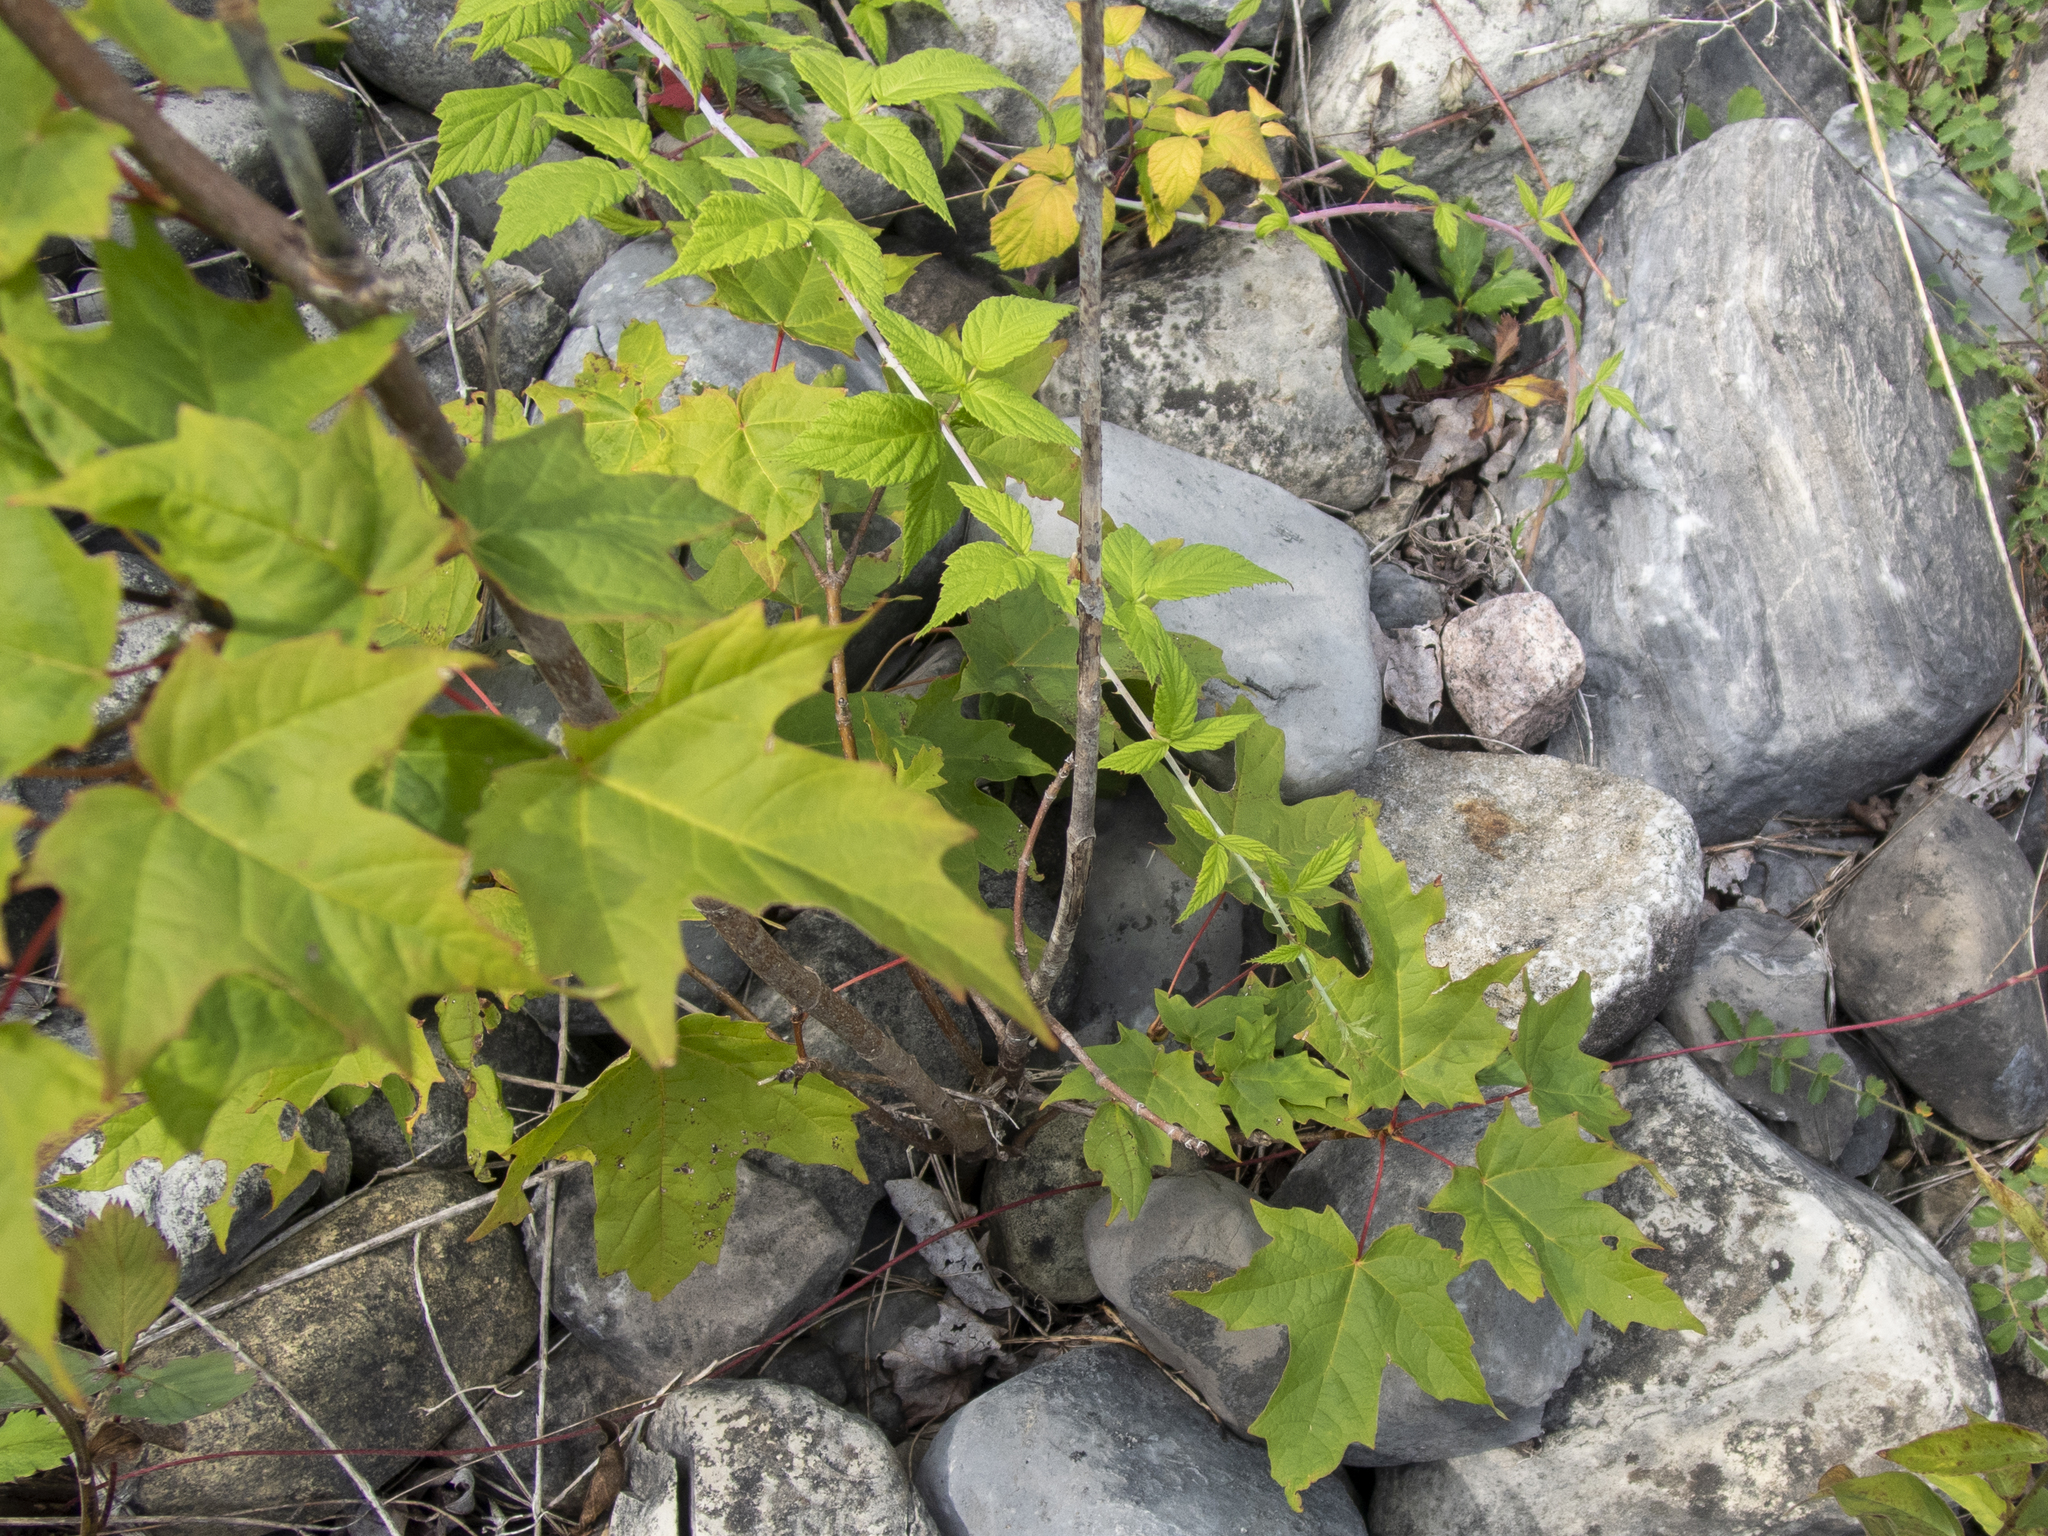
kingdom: Plantae
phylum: Tracheophyta
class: Magnoliopsida
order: Sapindales
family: Sapindaceae
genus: Acer
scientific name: Acer saccharum
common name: Sugar maple
